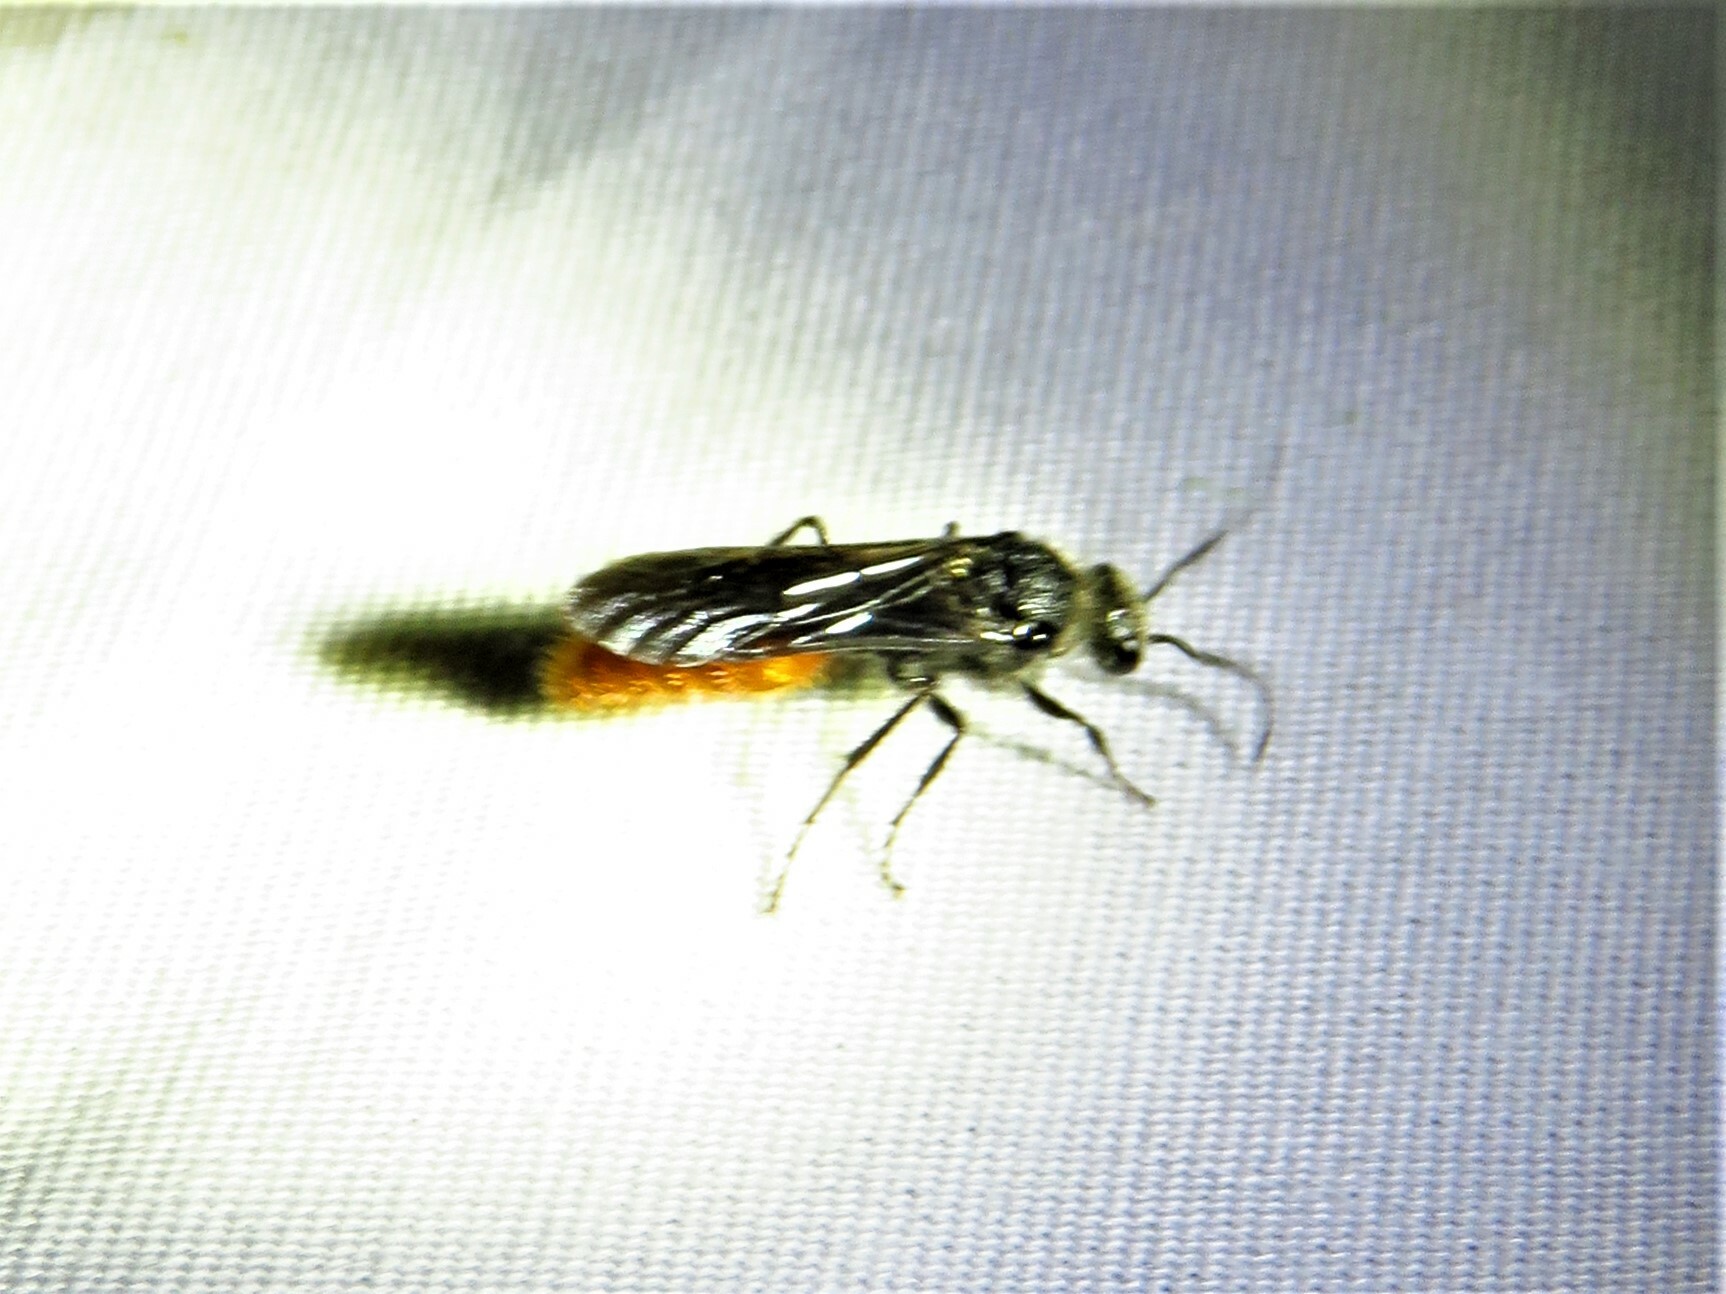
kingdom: Animalia
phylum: Arthropoda
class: Insecta
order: Hymenoptera
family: Mutillidae
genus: Timulla
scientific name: Timulla
